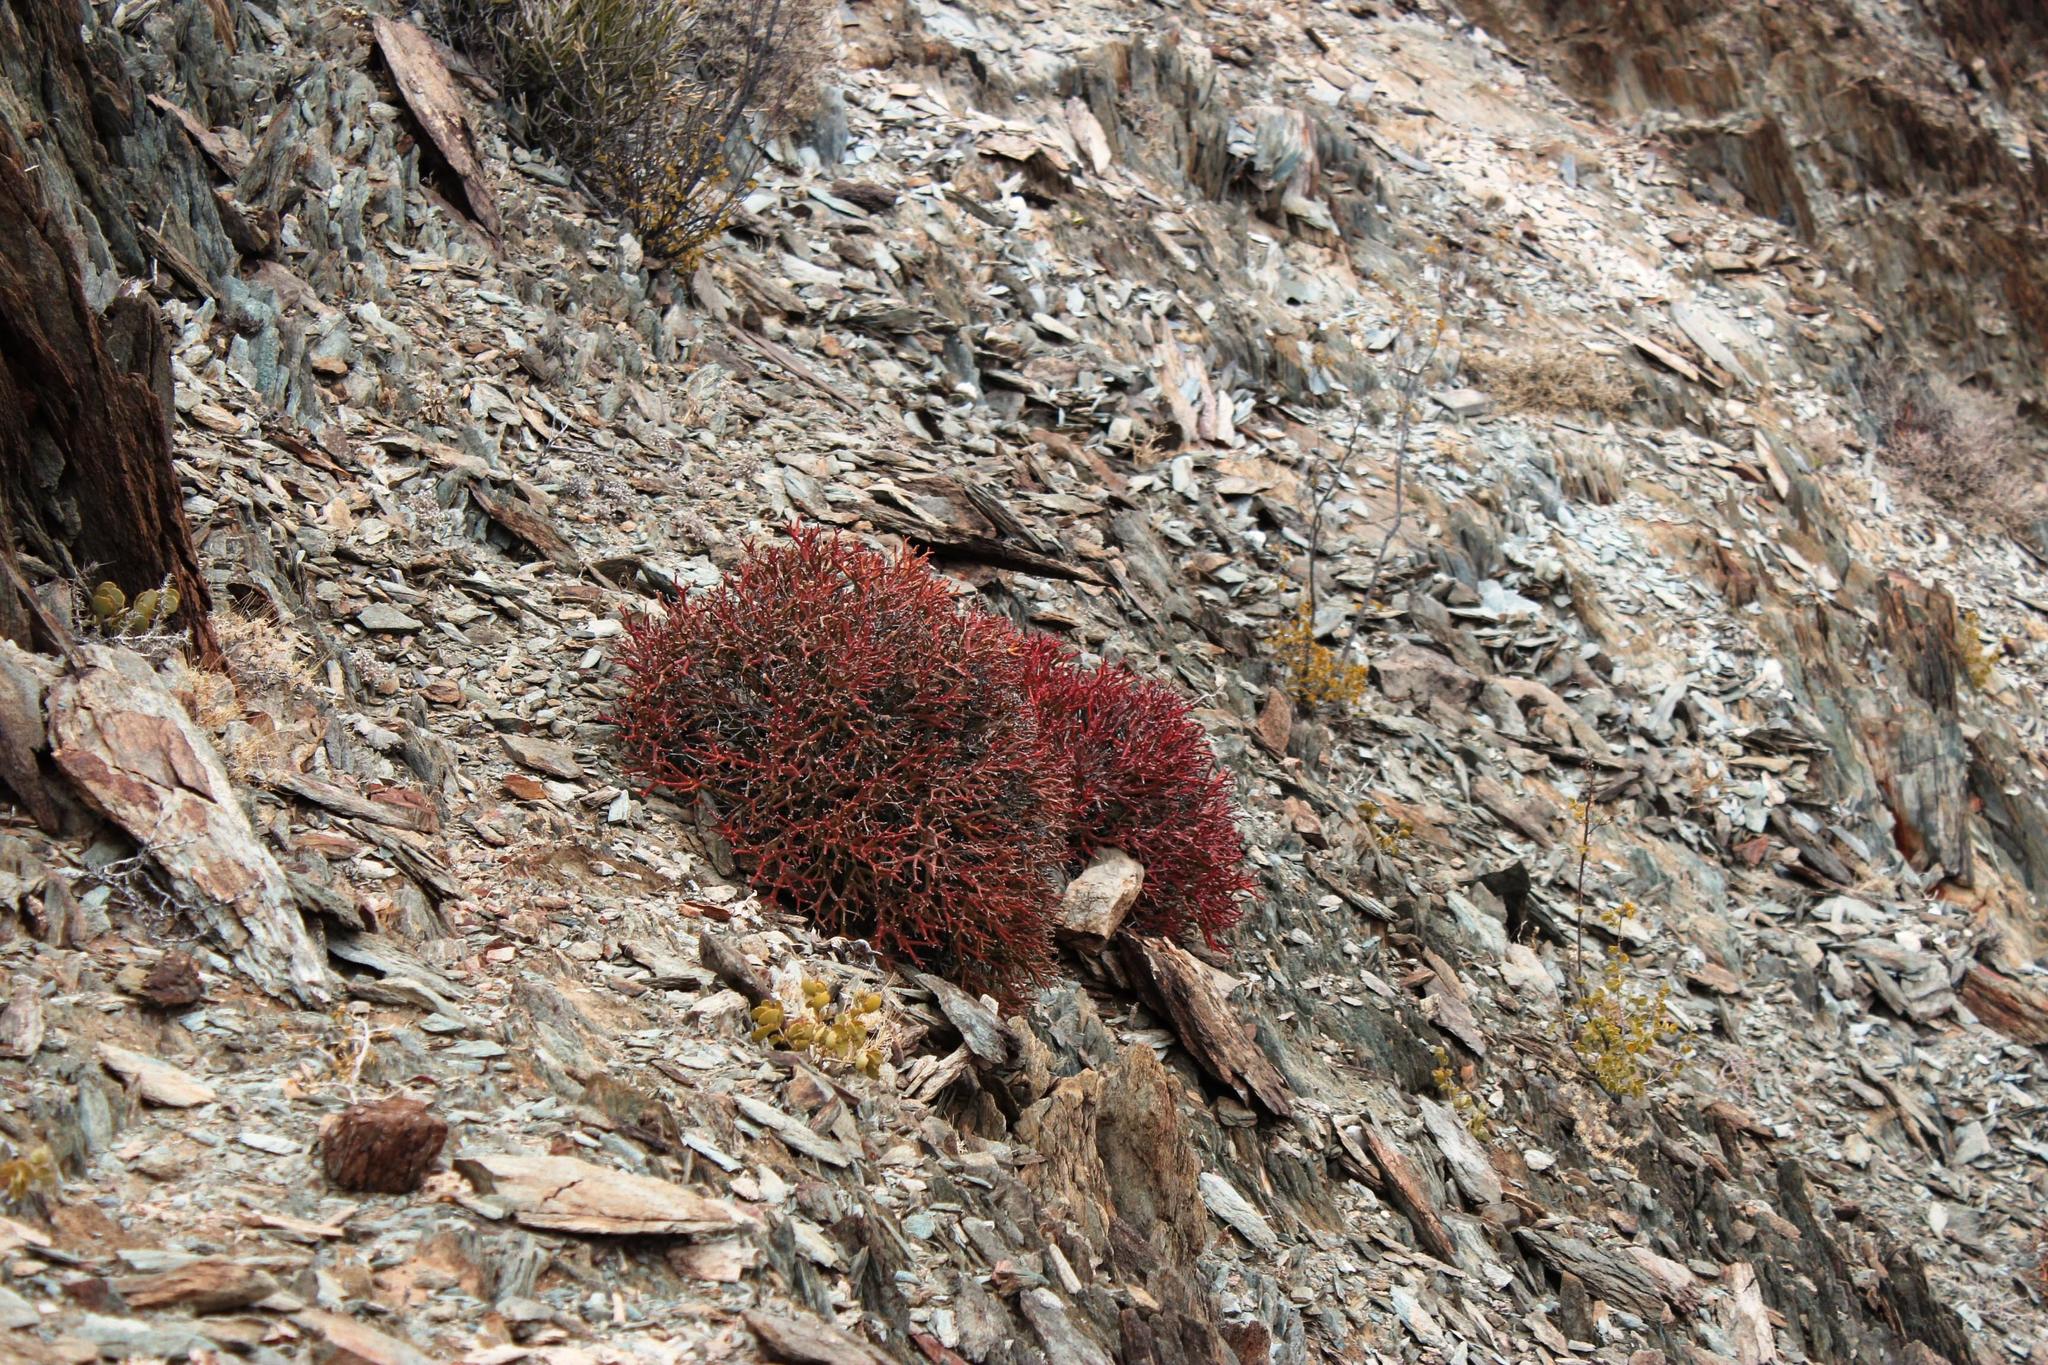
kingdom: Plantae
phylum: Tracheophyta
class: Magnoliopsida
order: Malpighiales
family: Euphorbiaceae
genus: Euphorbia
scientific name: Euphorbia rhombifolia
